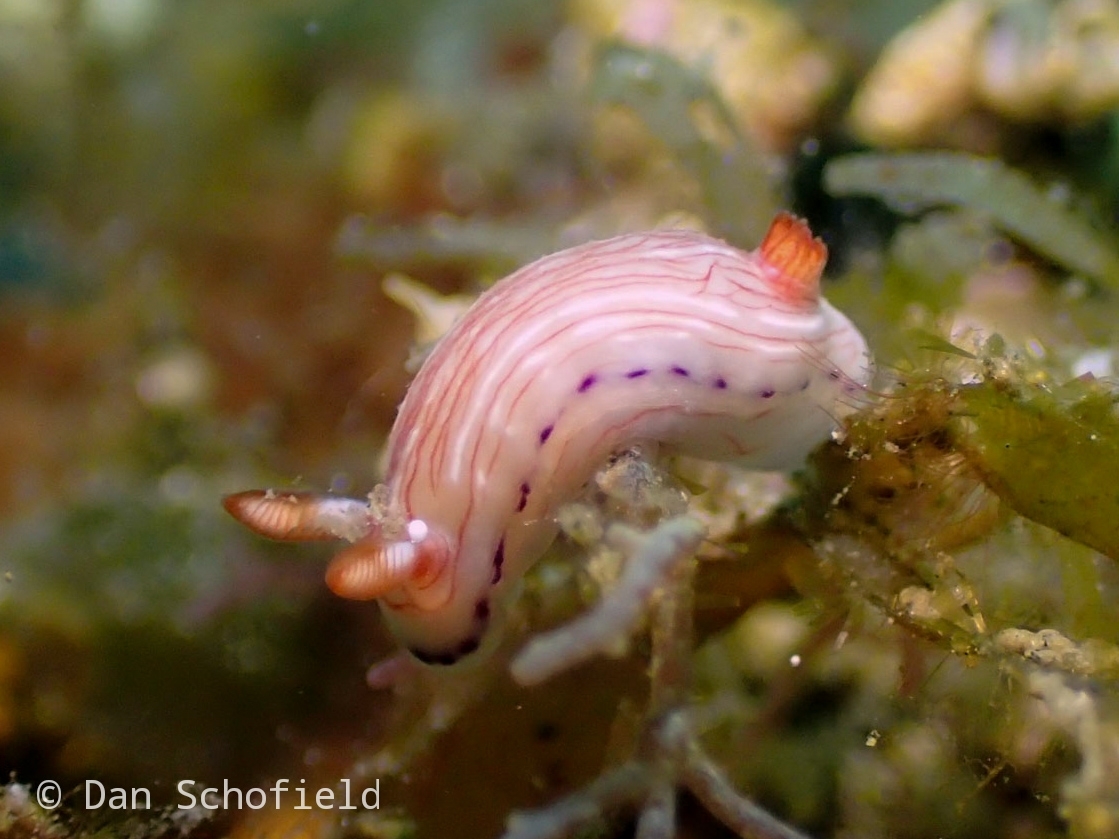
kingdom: Animalia
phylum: Mollusca
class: Gastropoda
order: Nudibranchia
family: Chromodorididae
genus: Hypselodoris
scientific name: Hypselodoris katherinae
